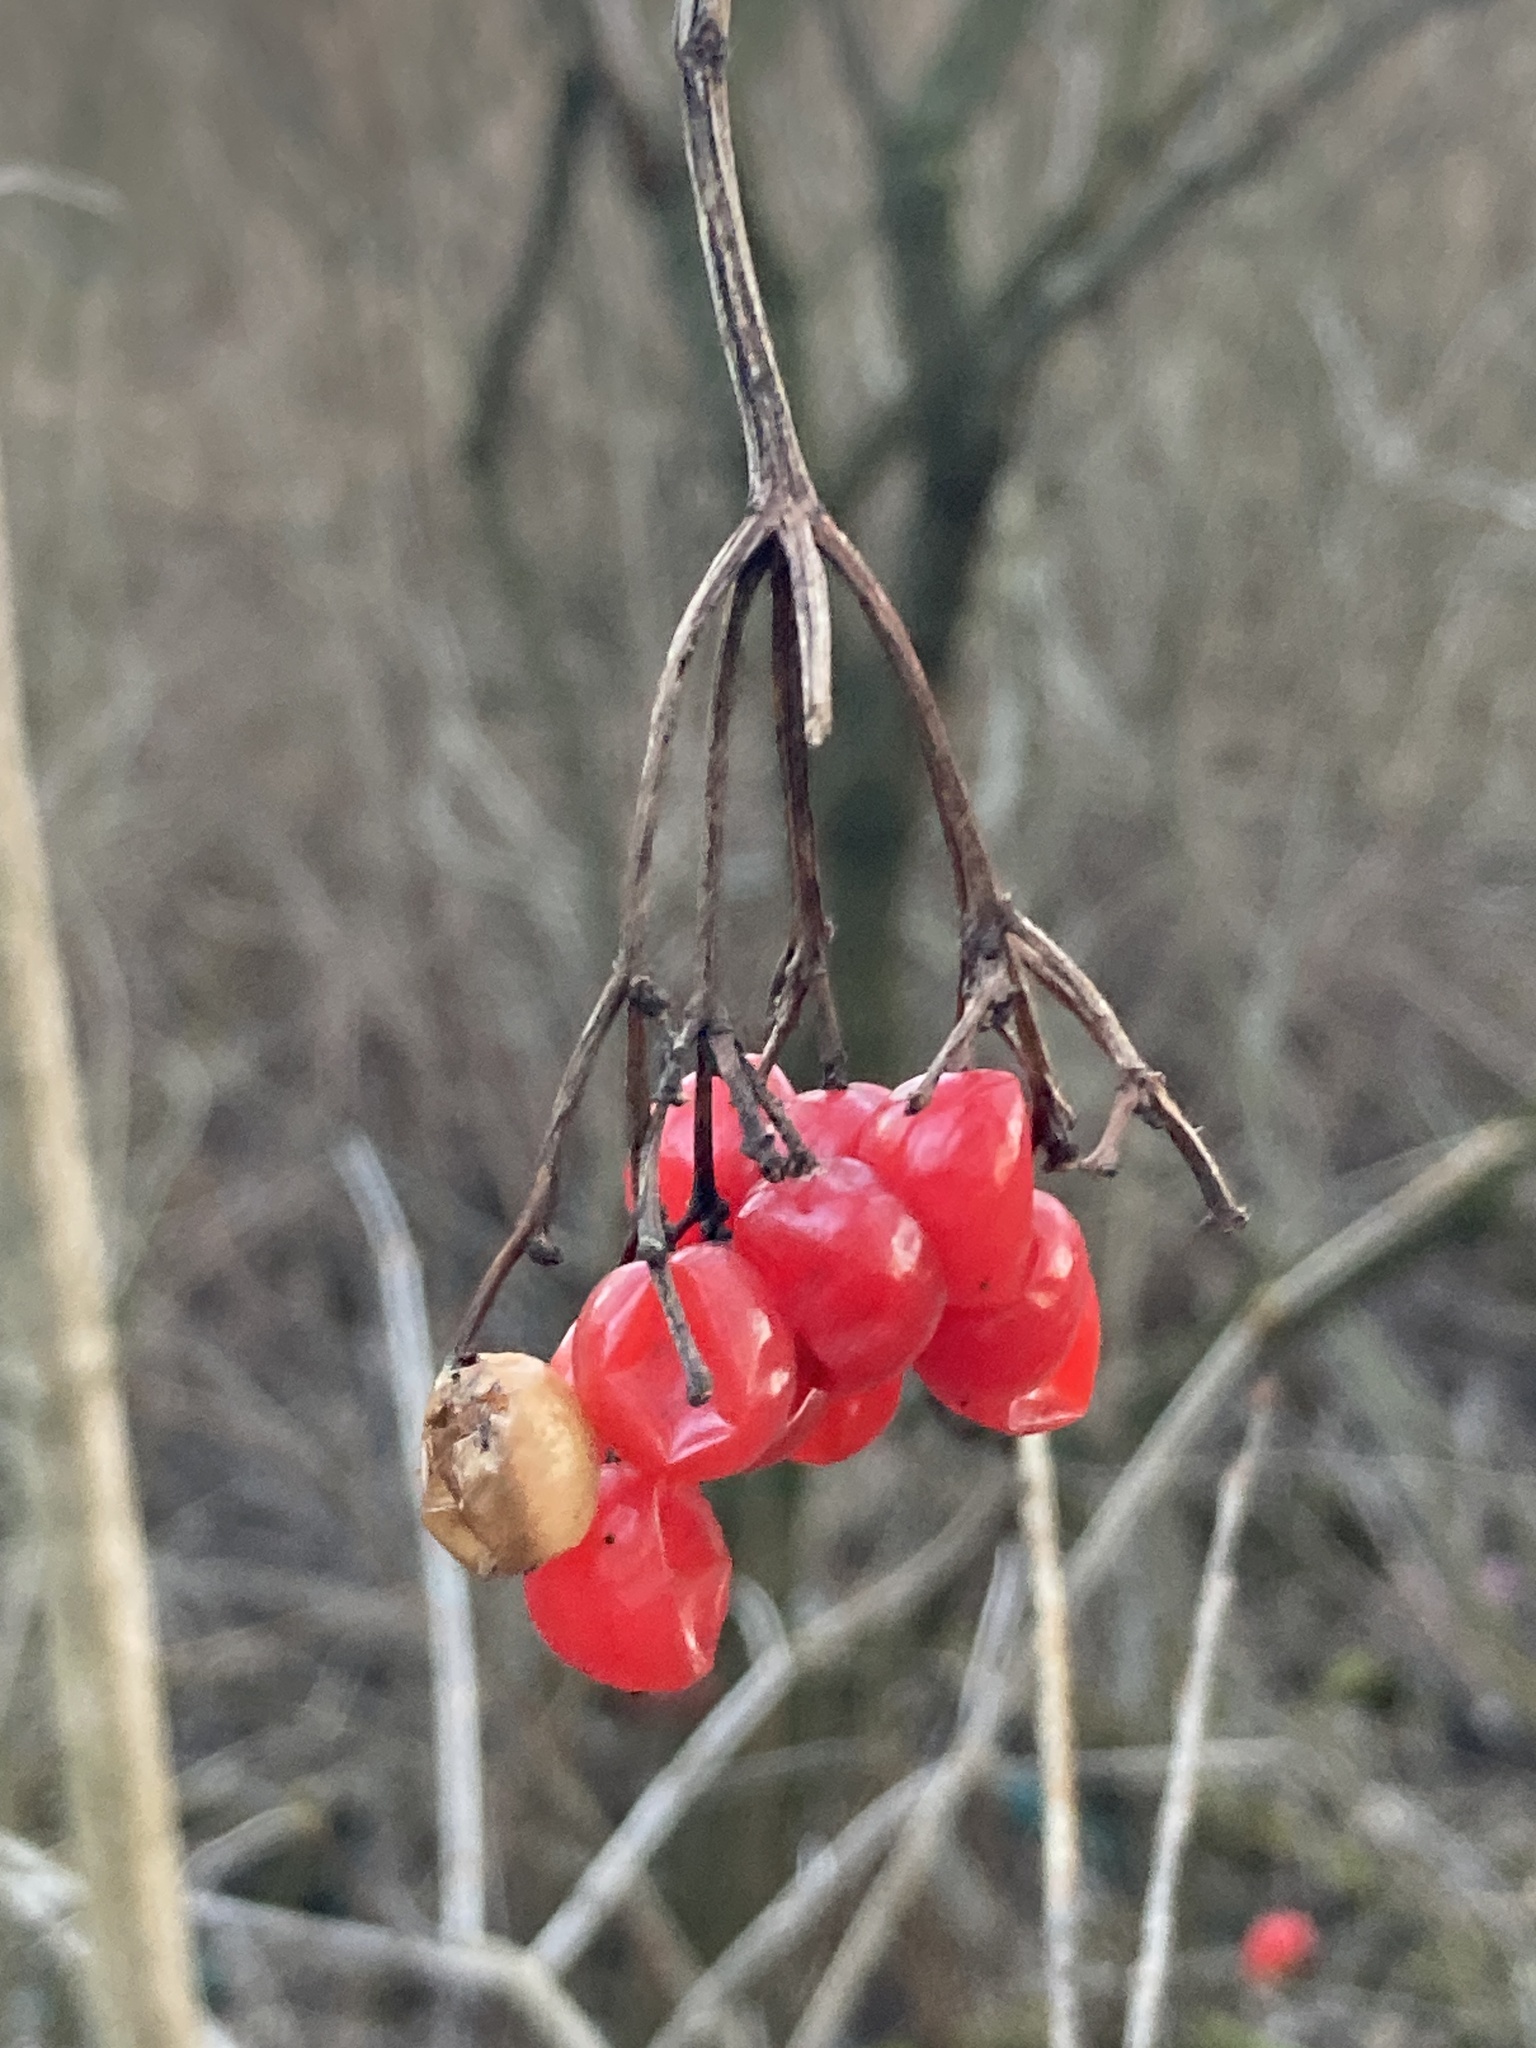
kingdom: Plantae
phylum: Tracheophyta
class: Magnoliopsida
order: Dipsacales
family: Viburnaceae
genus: Viburnum
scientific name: Viburnum opulus
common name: Guelder-rose
